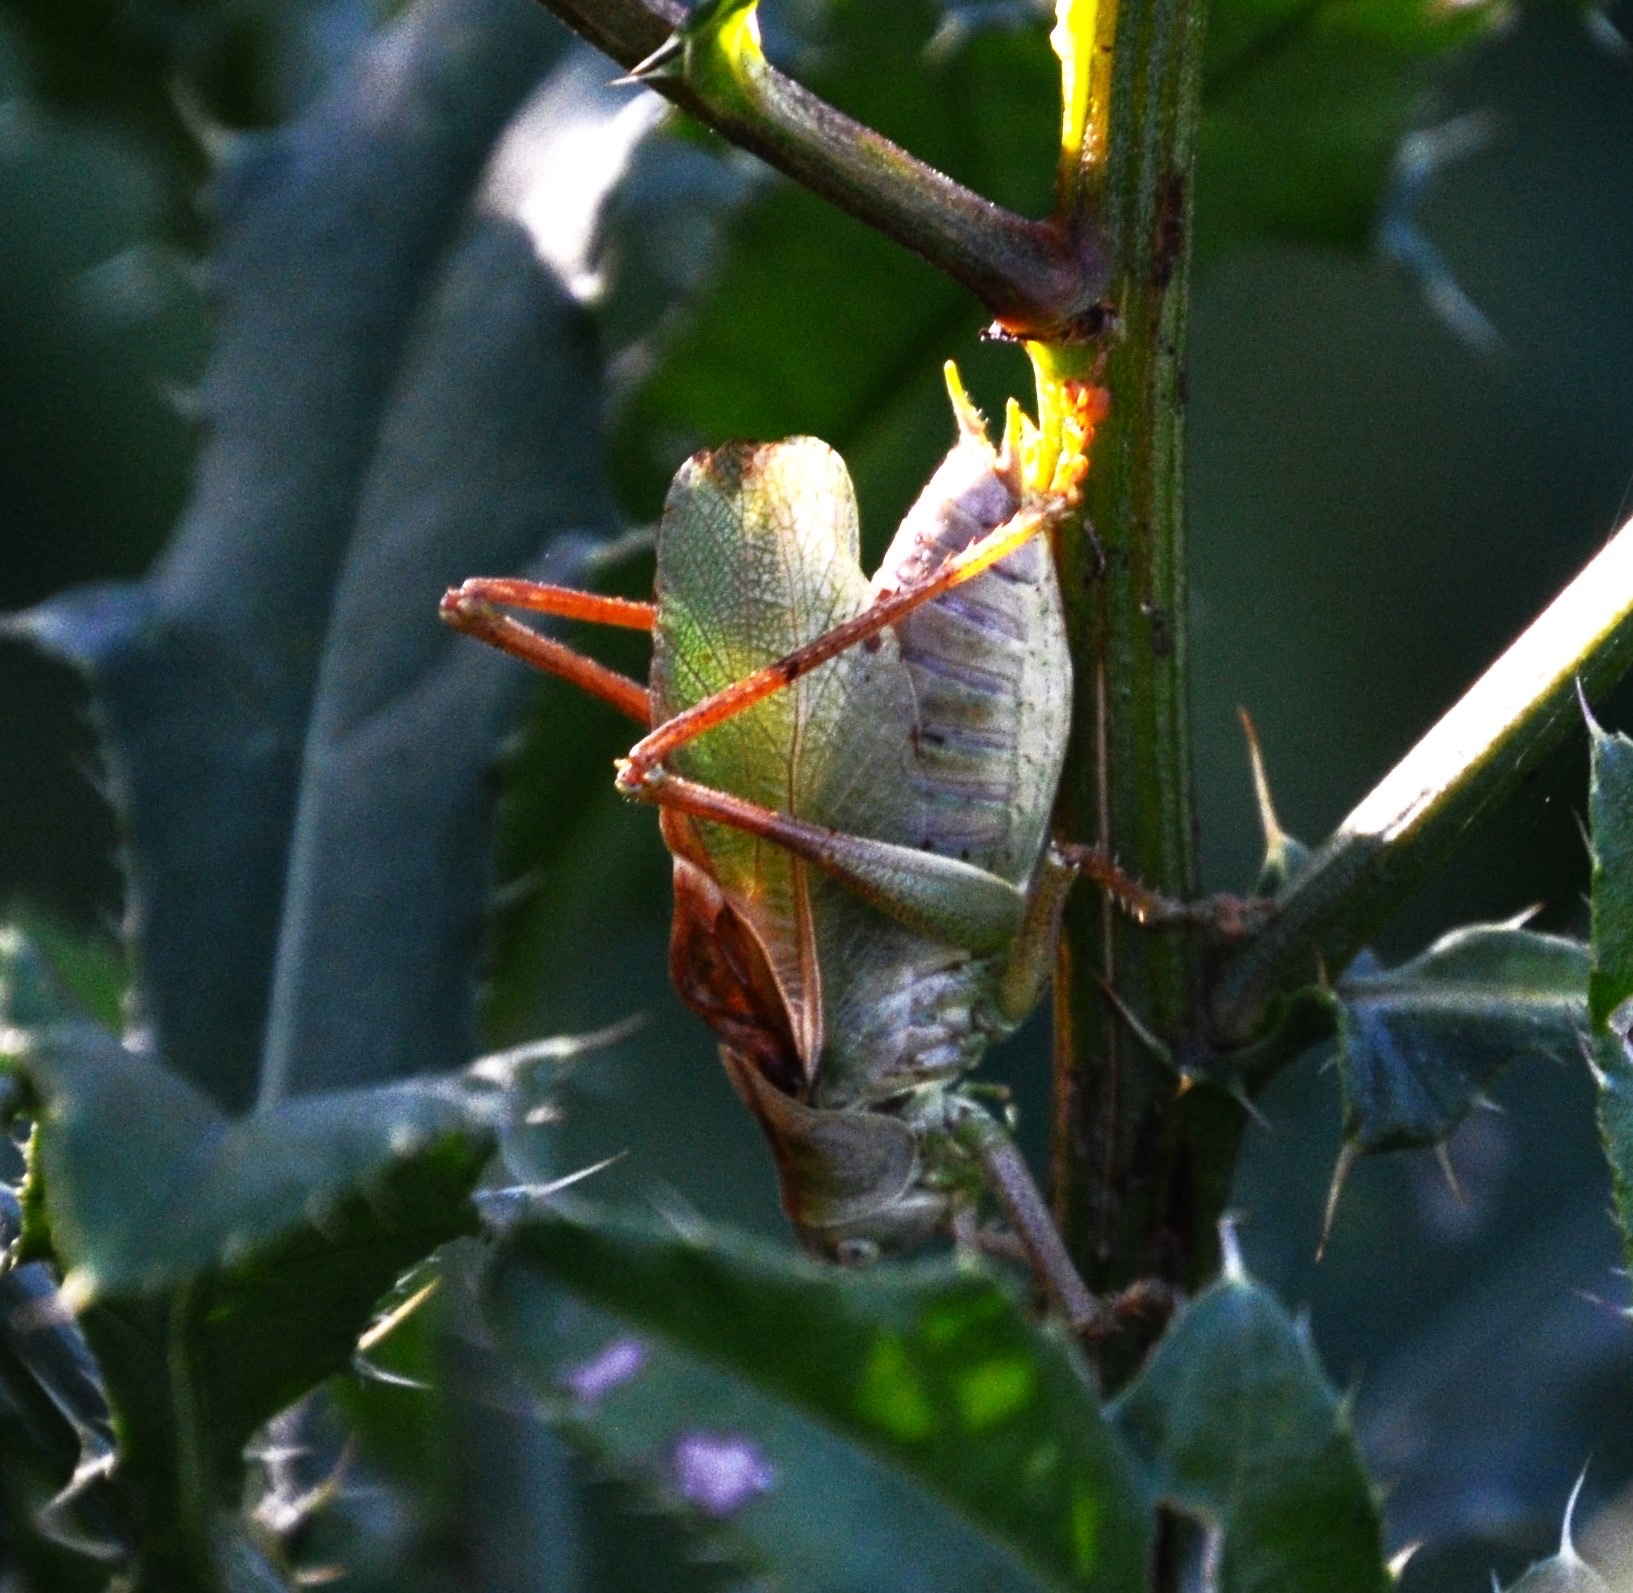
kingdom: Animalia
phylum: Arthropoda
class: Insecta
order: Orthoptera
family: Tettigoniidae
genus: Tettigonia
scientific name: Tettigonia cantans
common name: Upland green bush-cricket
